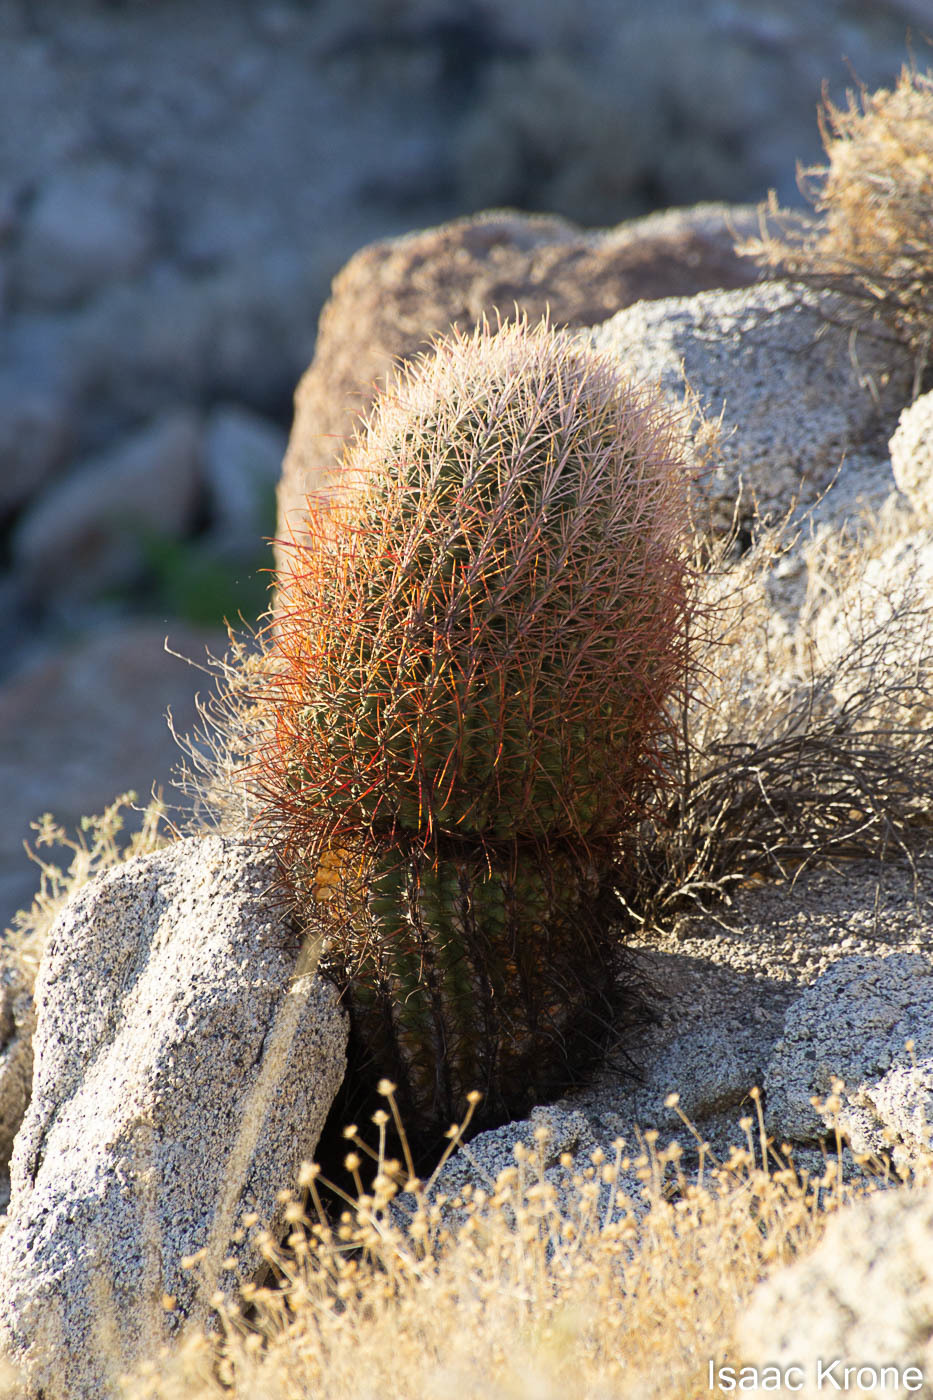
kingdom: Plantae
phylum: Tracheophyta
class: Magnoliopsida
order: Caryophyllales
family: Cactaceae
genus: Ferocactus
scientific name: Ferocactus cylindraceus
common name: California barrel cactus
